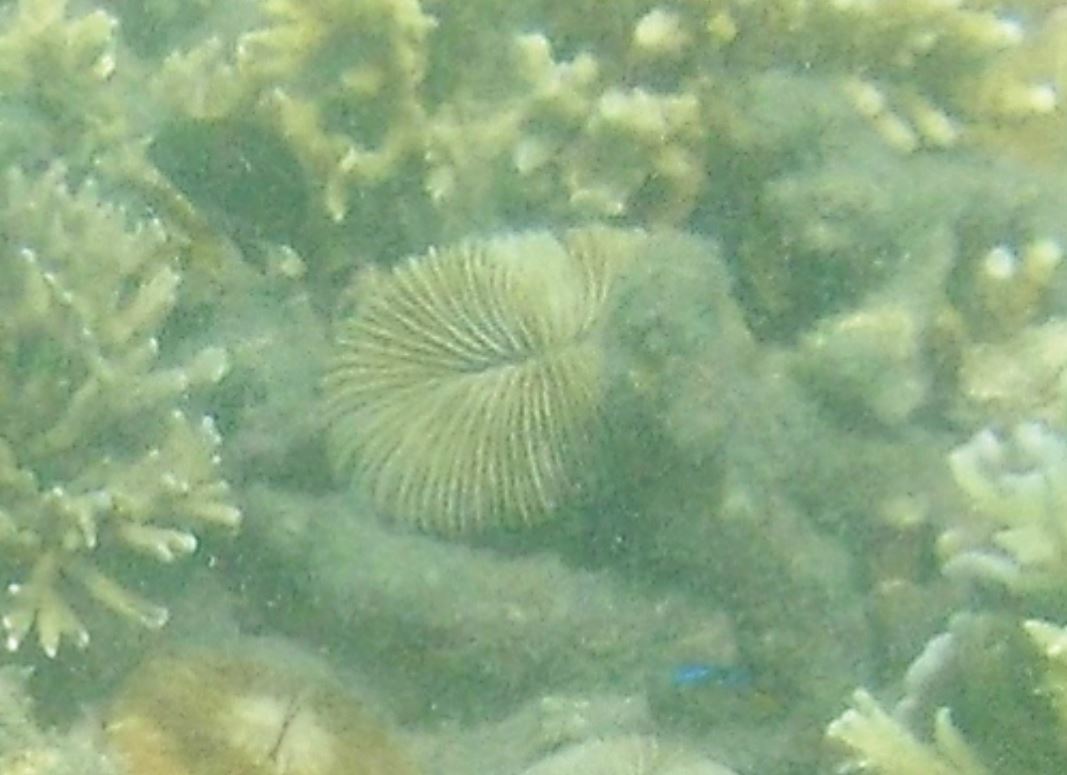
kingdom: Animalia
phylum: Cnidaria
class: Anthozoa
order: Scleractinia
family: Fungiidae
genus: Pleuractis
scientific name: Pleuractis paumotensis
